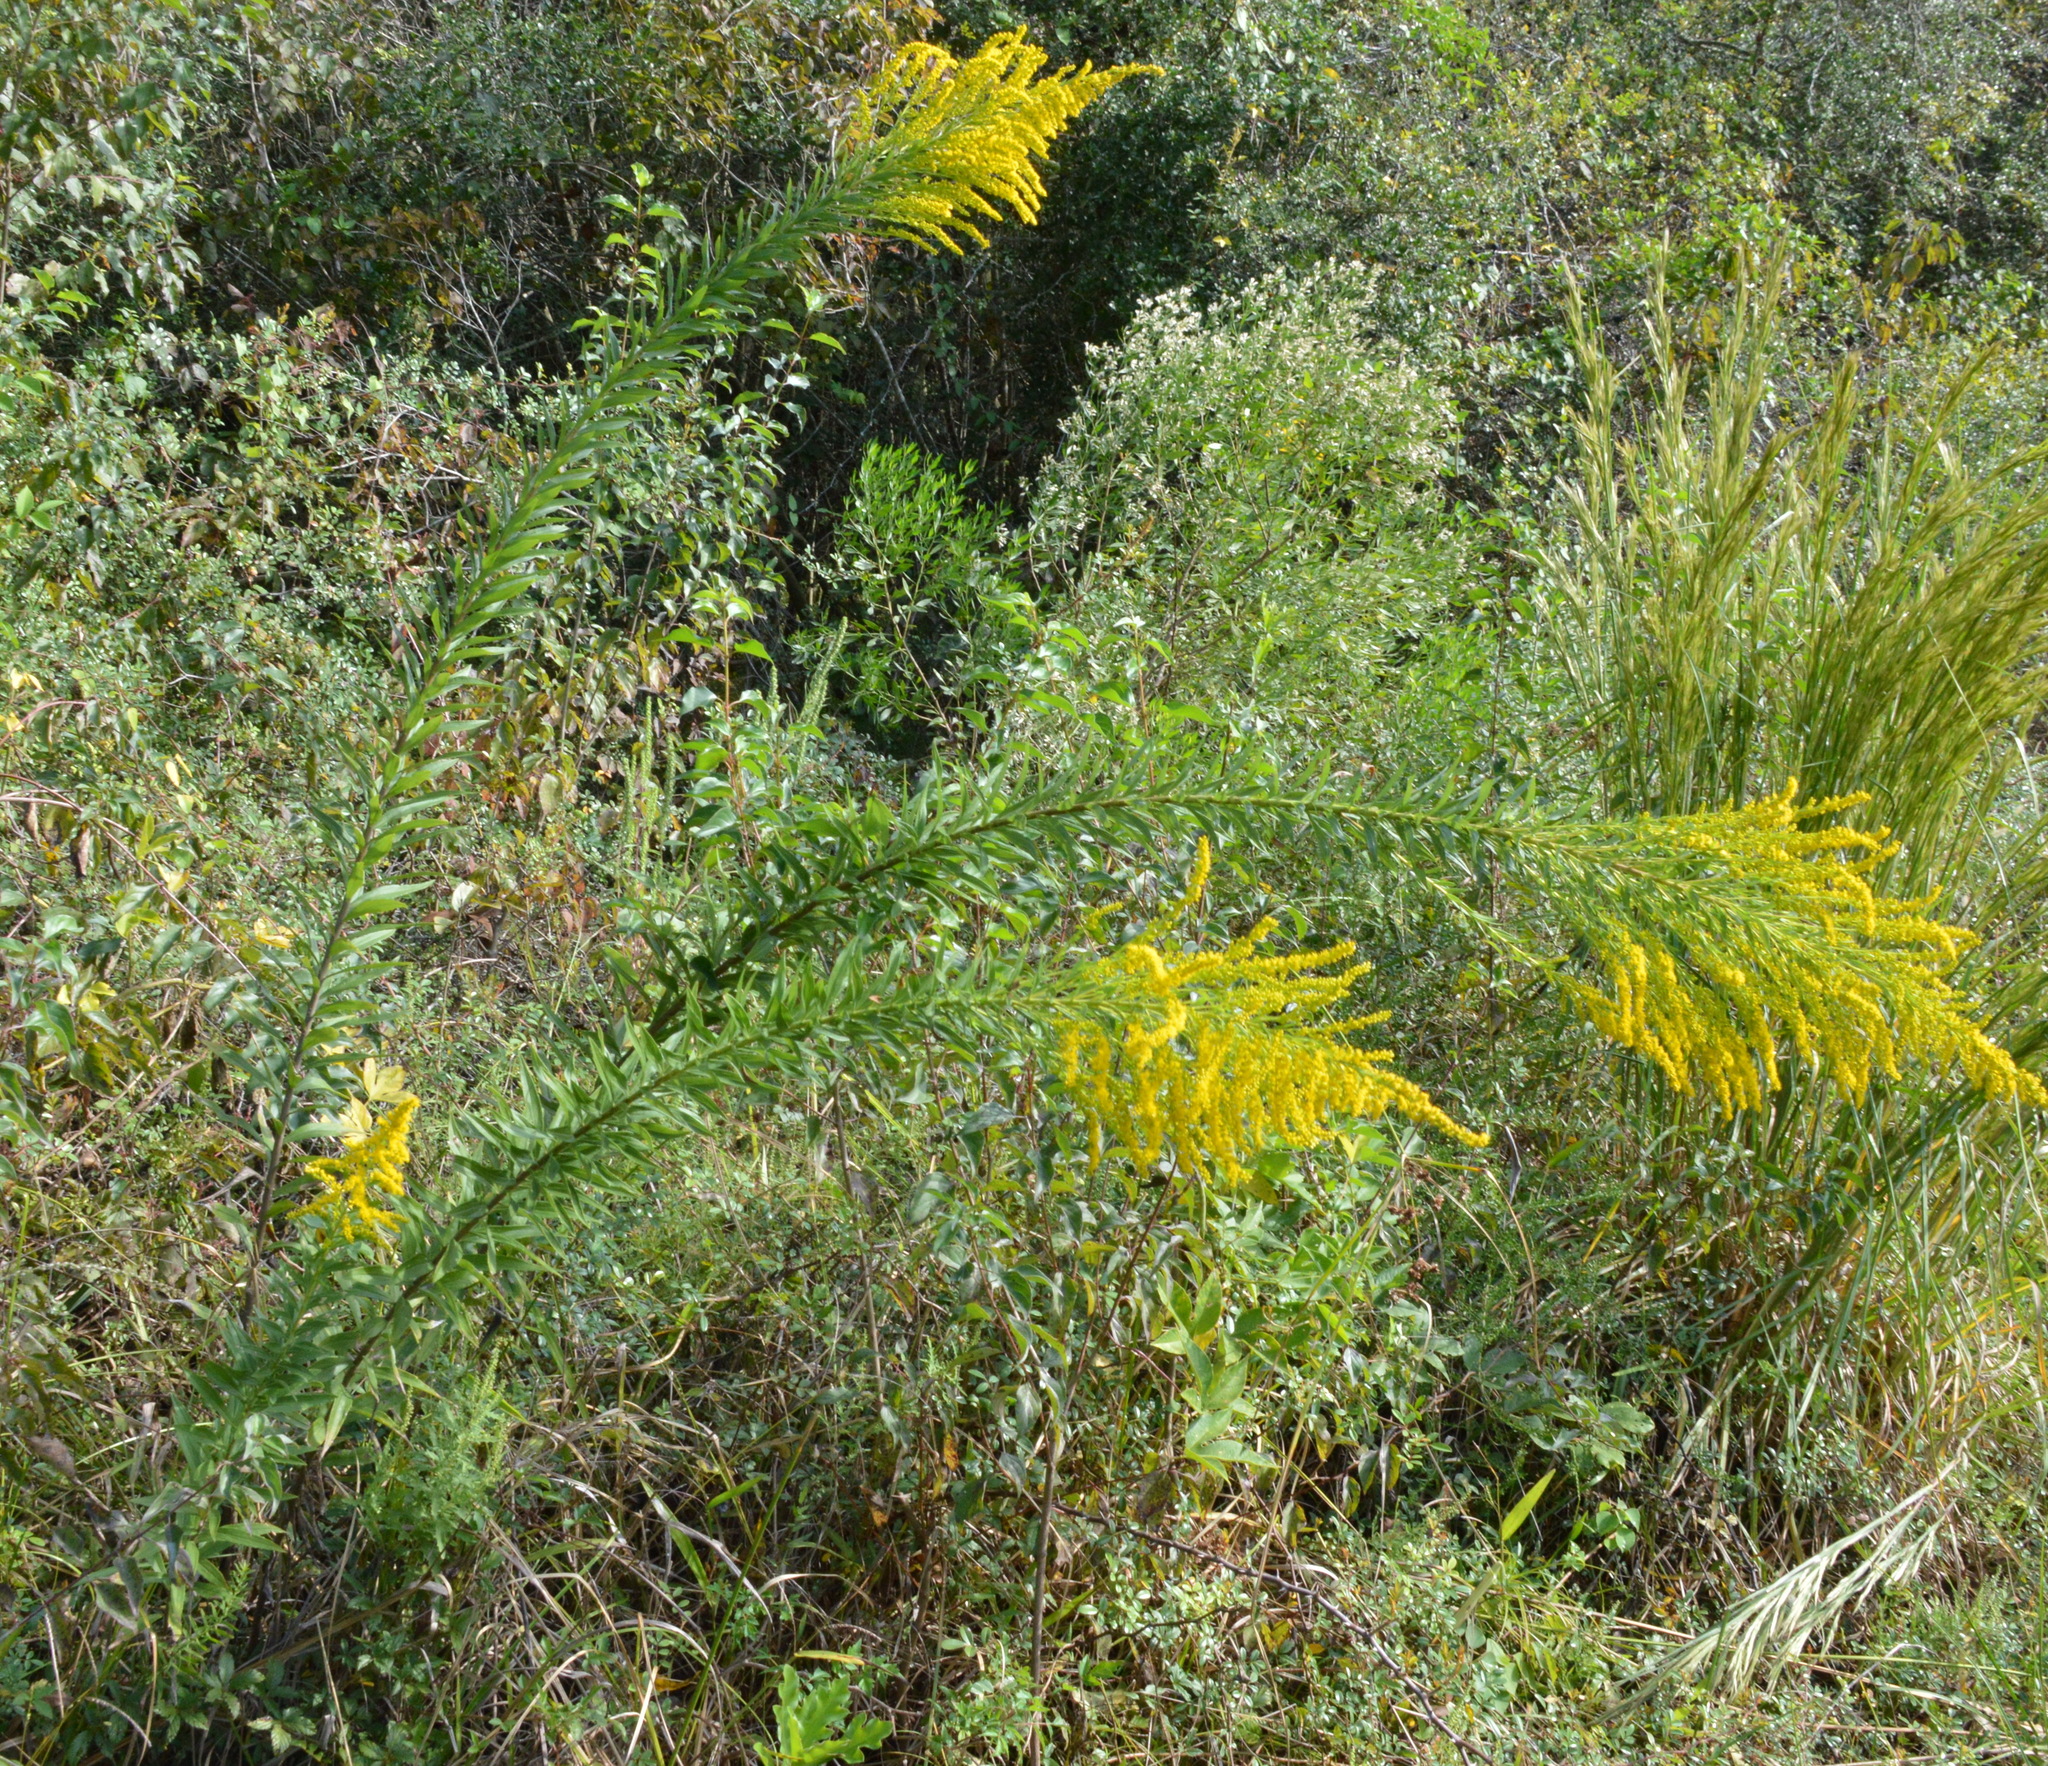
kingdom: Plantae
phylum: Tracheophyta
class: Magnoliopsida
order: Asterales
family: Asteraceae
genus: Solidago
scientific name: Solidago altissima
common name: Late goldenrod
